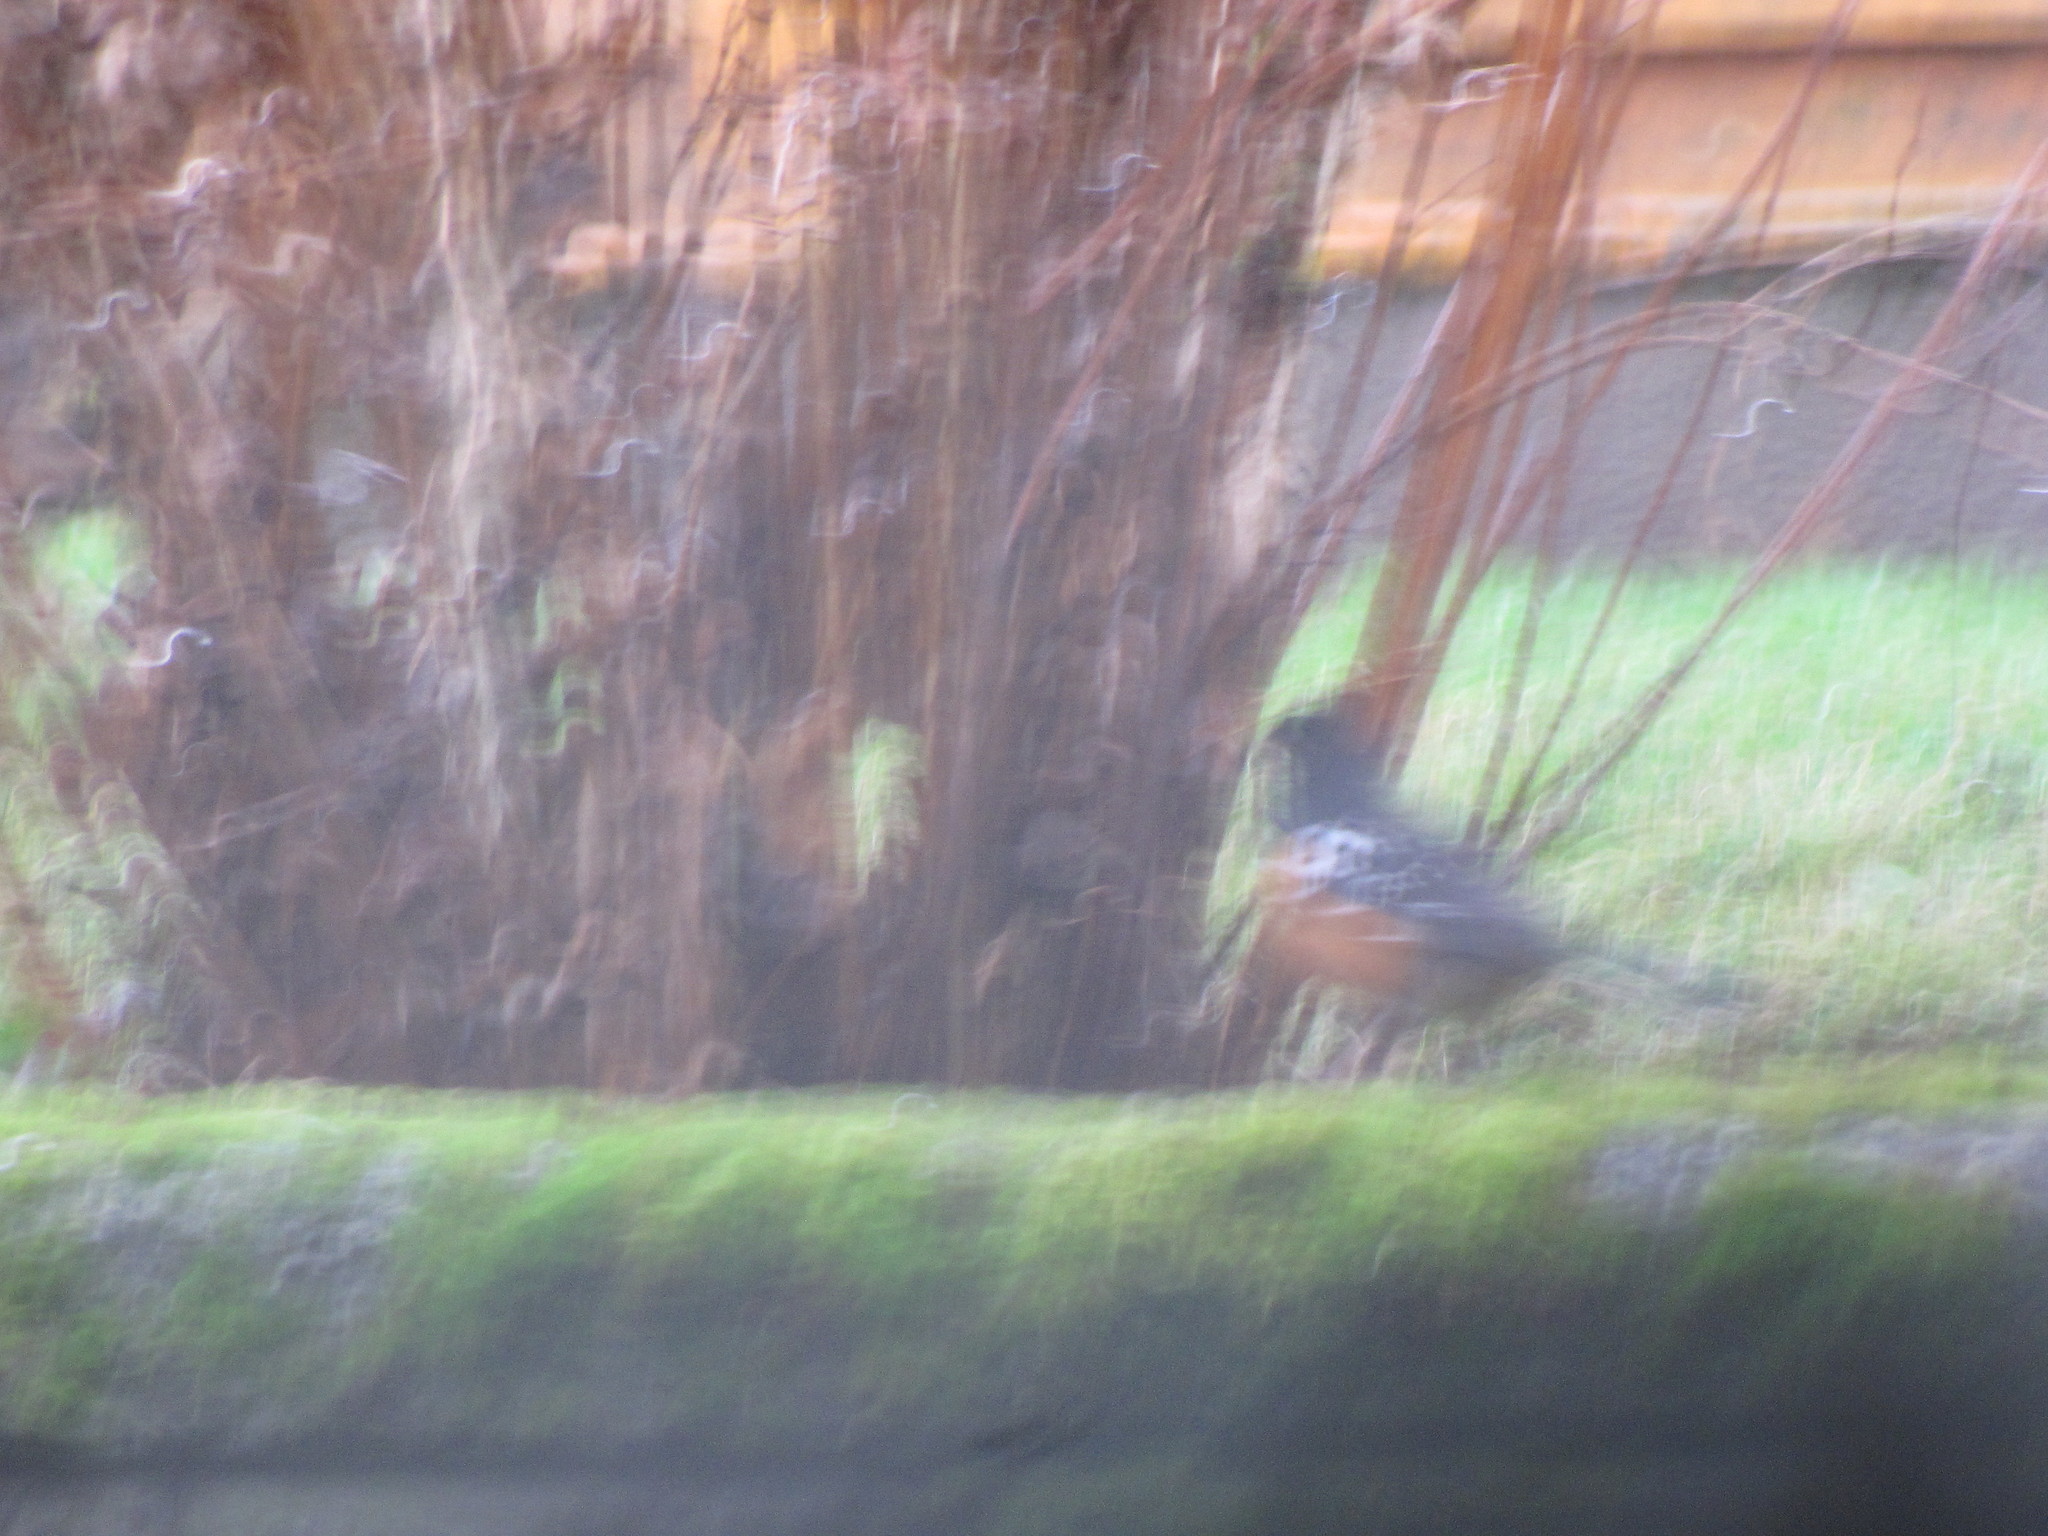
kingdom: Animalia
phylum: Chordata
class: Aves
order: Passeriformes
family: Passerellidae
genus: Pipilo
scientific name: Pipilo maculatus
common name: Spotted towhee
